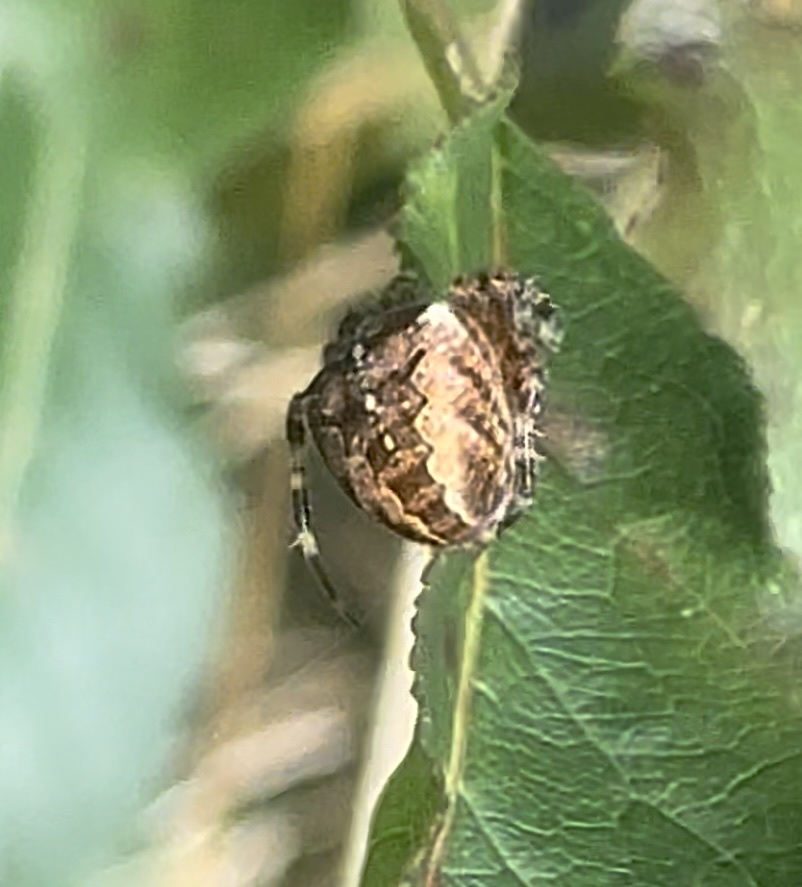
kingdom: Animalia
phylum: Arthropoda
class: Arachnida
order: Araneae
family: Araneidae
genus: Araneus
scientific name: Araneus diadematus
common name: Cross orbweaver
